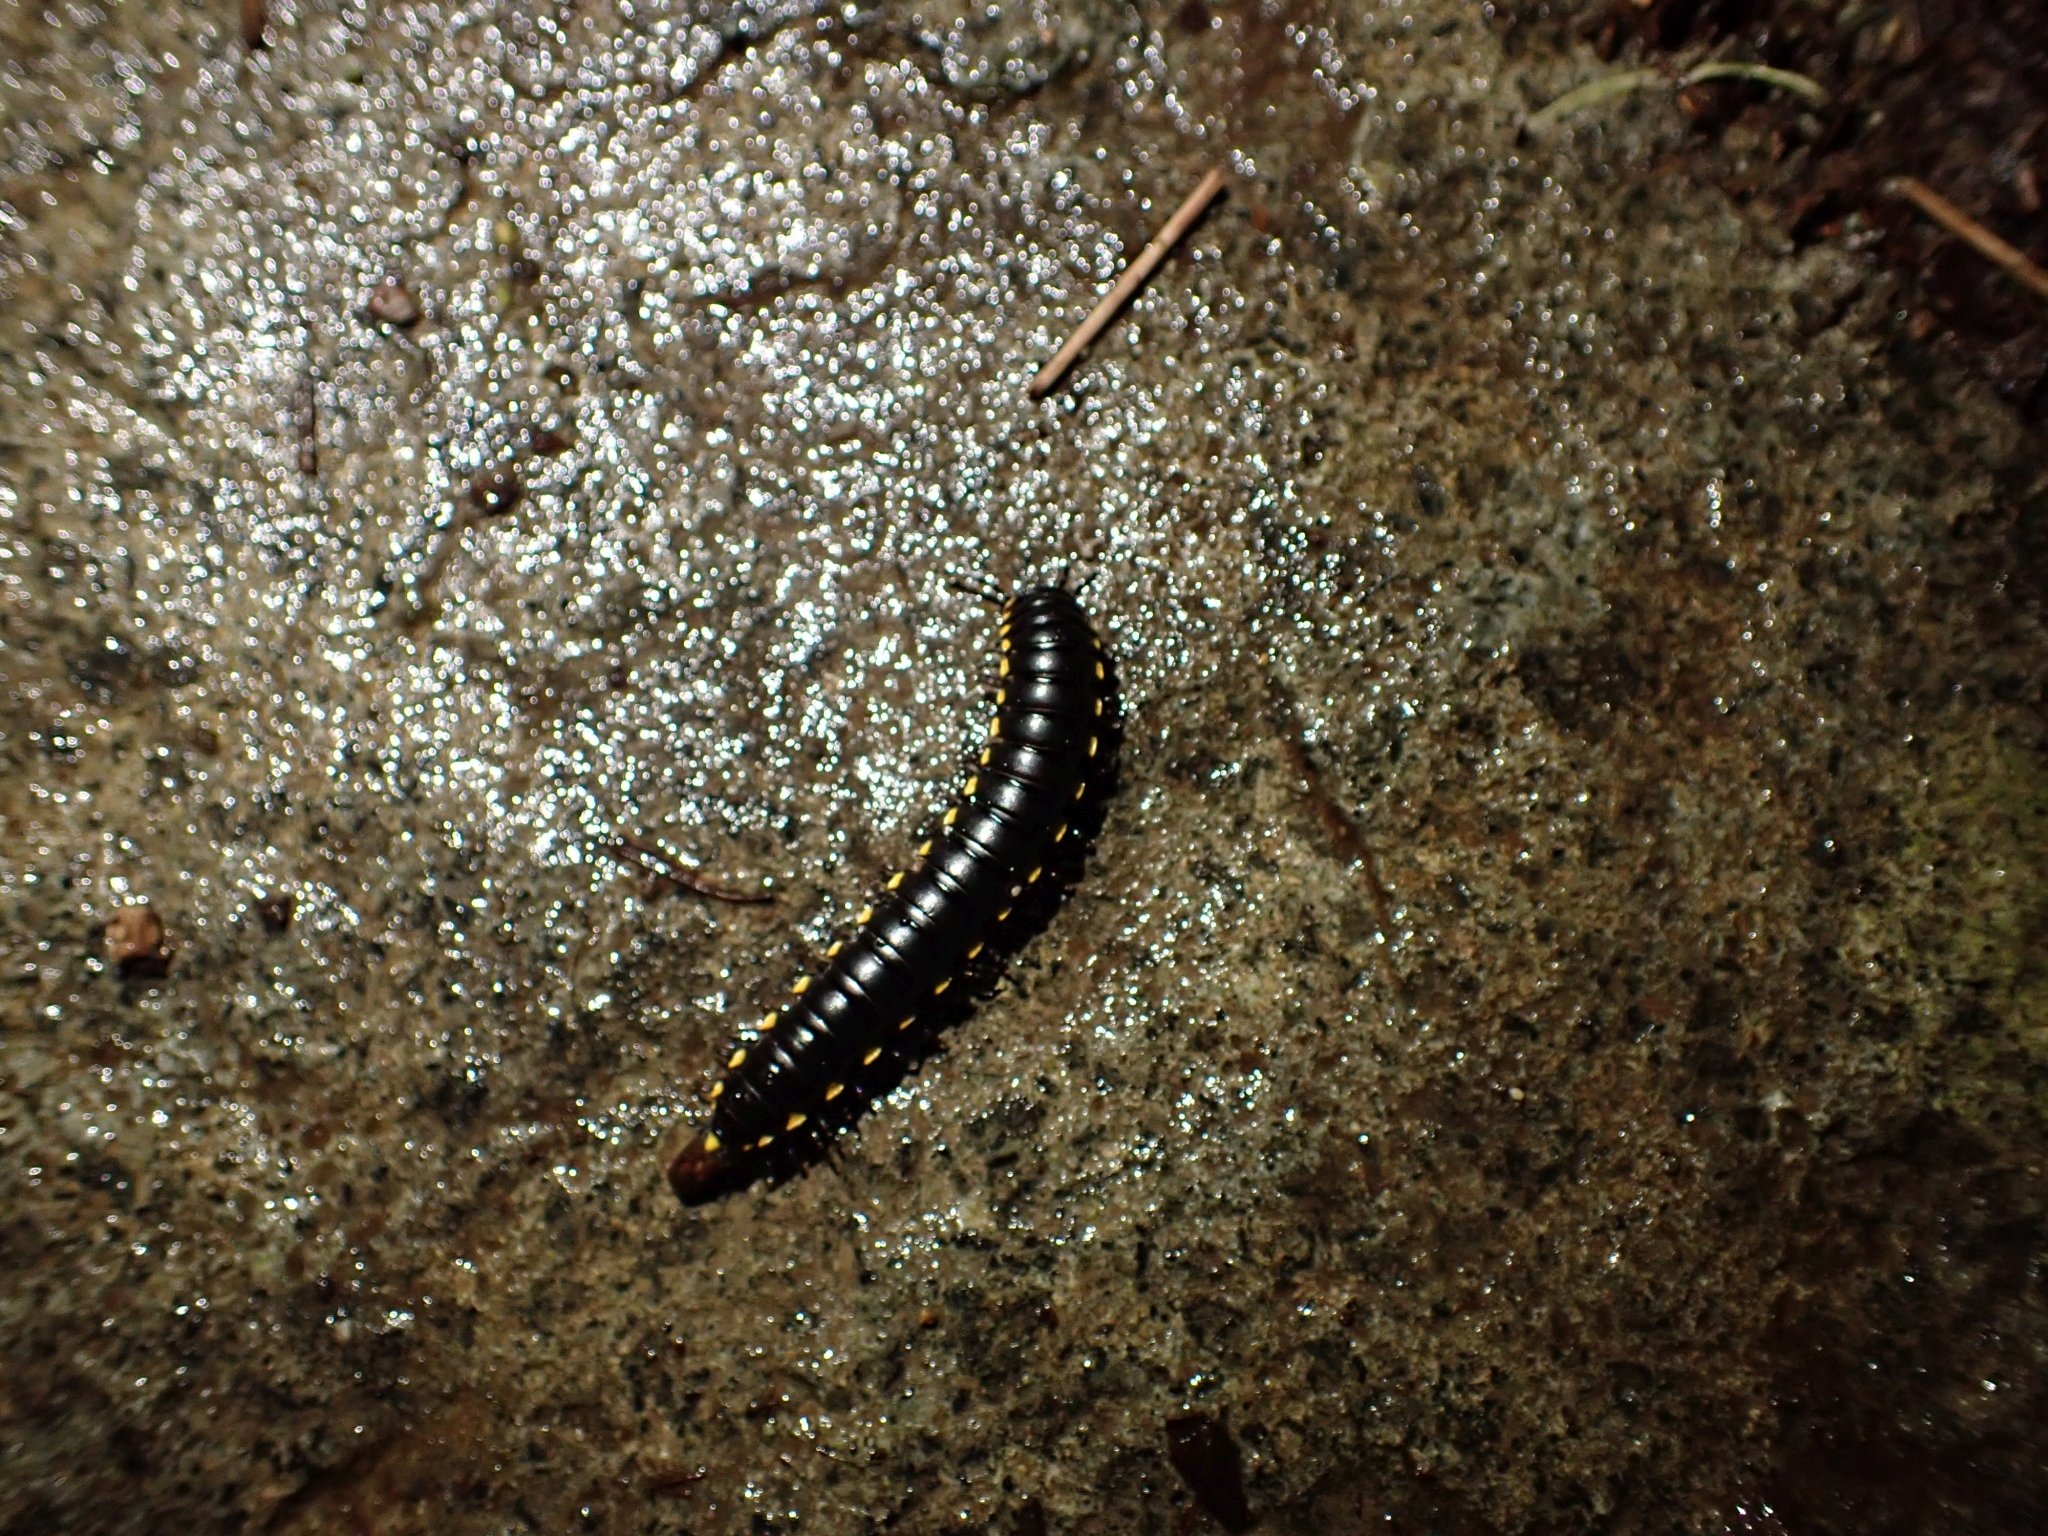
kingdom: Animalia
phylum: Arthropoda
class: Diplopoda
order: Polydesmida
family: Xystodesmidae
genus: Harpaphe
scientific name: Harpaphe haydeniana
